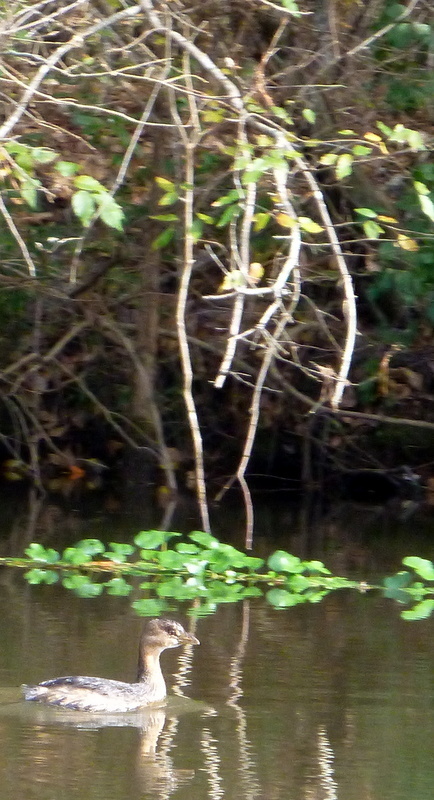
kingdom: Animalia
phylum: Chordata
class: Aves
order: Podicipediformes
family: Podicipedidae
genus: Podilymbus
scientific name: Podilymbus podiceps
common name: Pied-billed grebe
